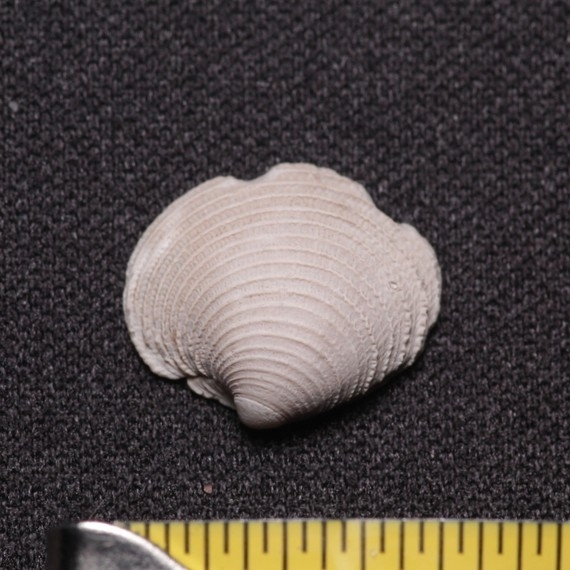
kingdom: Animalia
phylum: Mollusca
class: Bivalvia
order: Venerida
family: Veneridae
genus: Chionopsis
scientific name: Chionopsis intapurpurea
